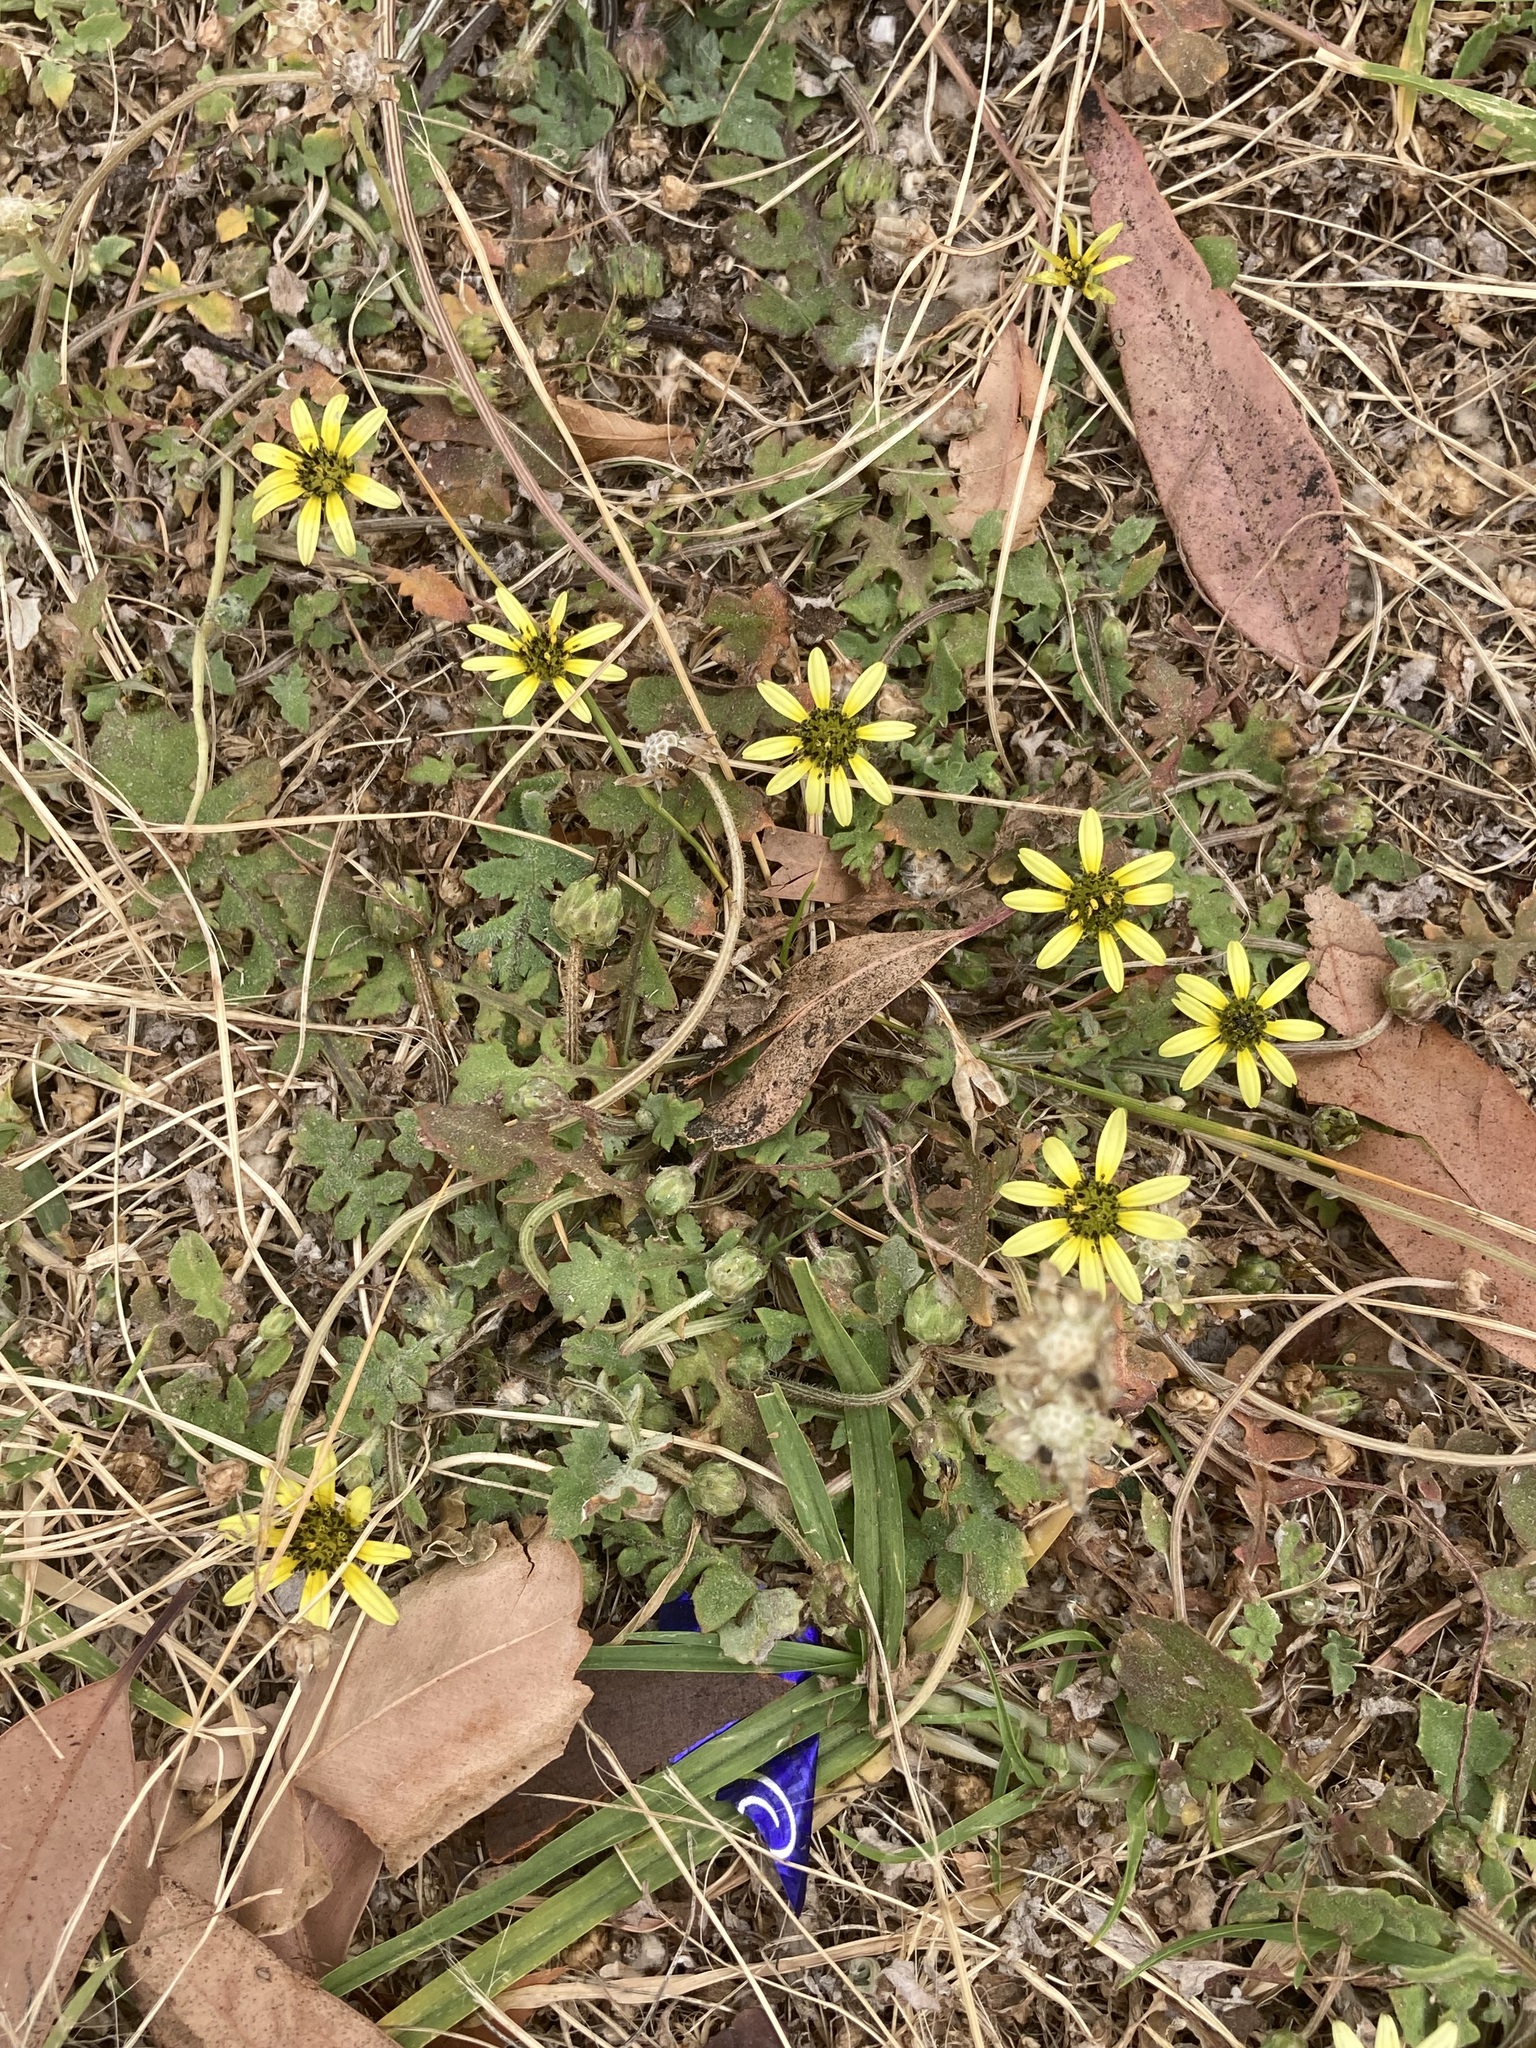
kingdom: Plantae
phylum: Tracheophyta
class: Magnoliopsida
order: Asterales
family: Asteraceae
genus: Arctotheca
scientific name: Arctotheca calendula
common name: Capeweed
